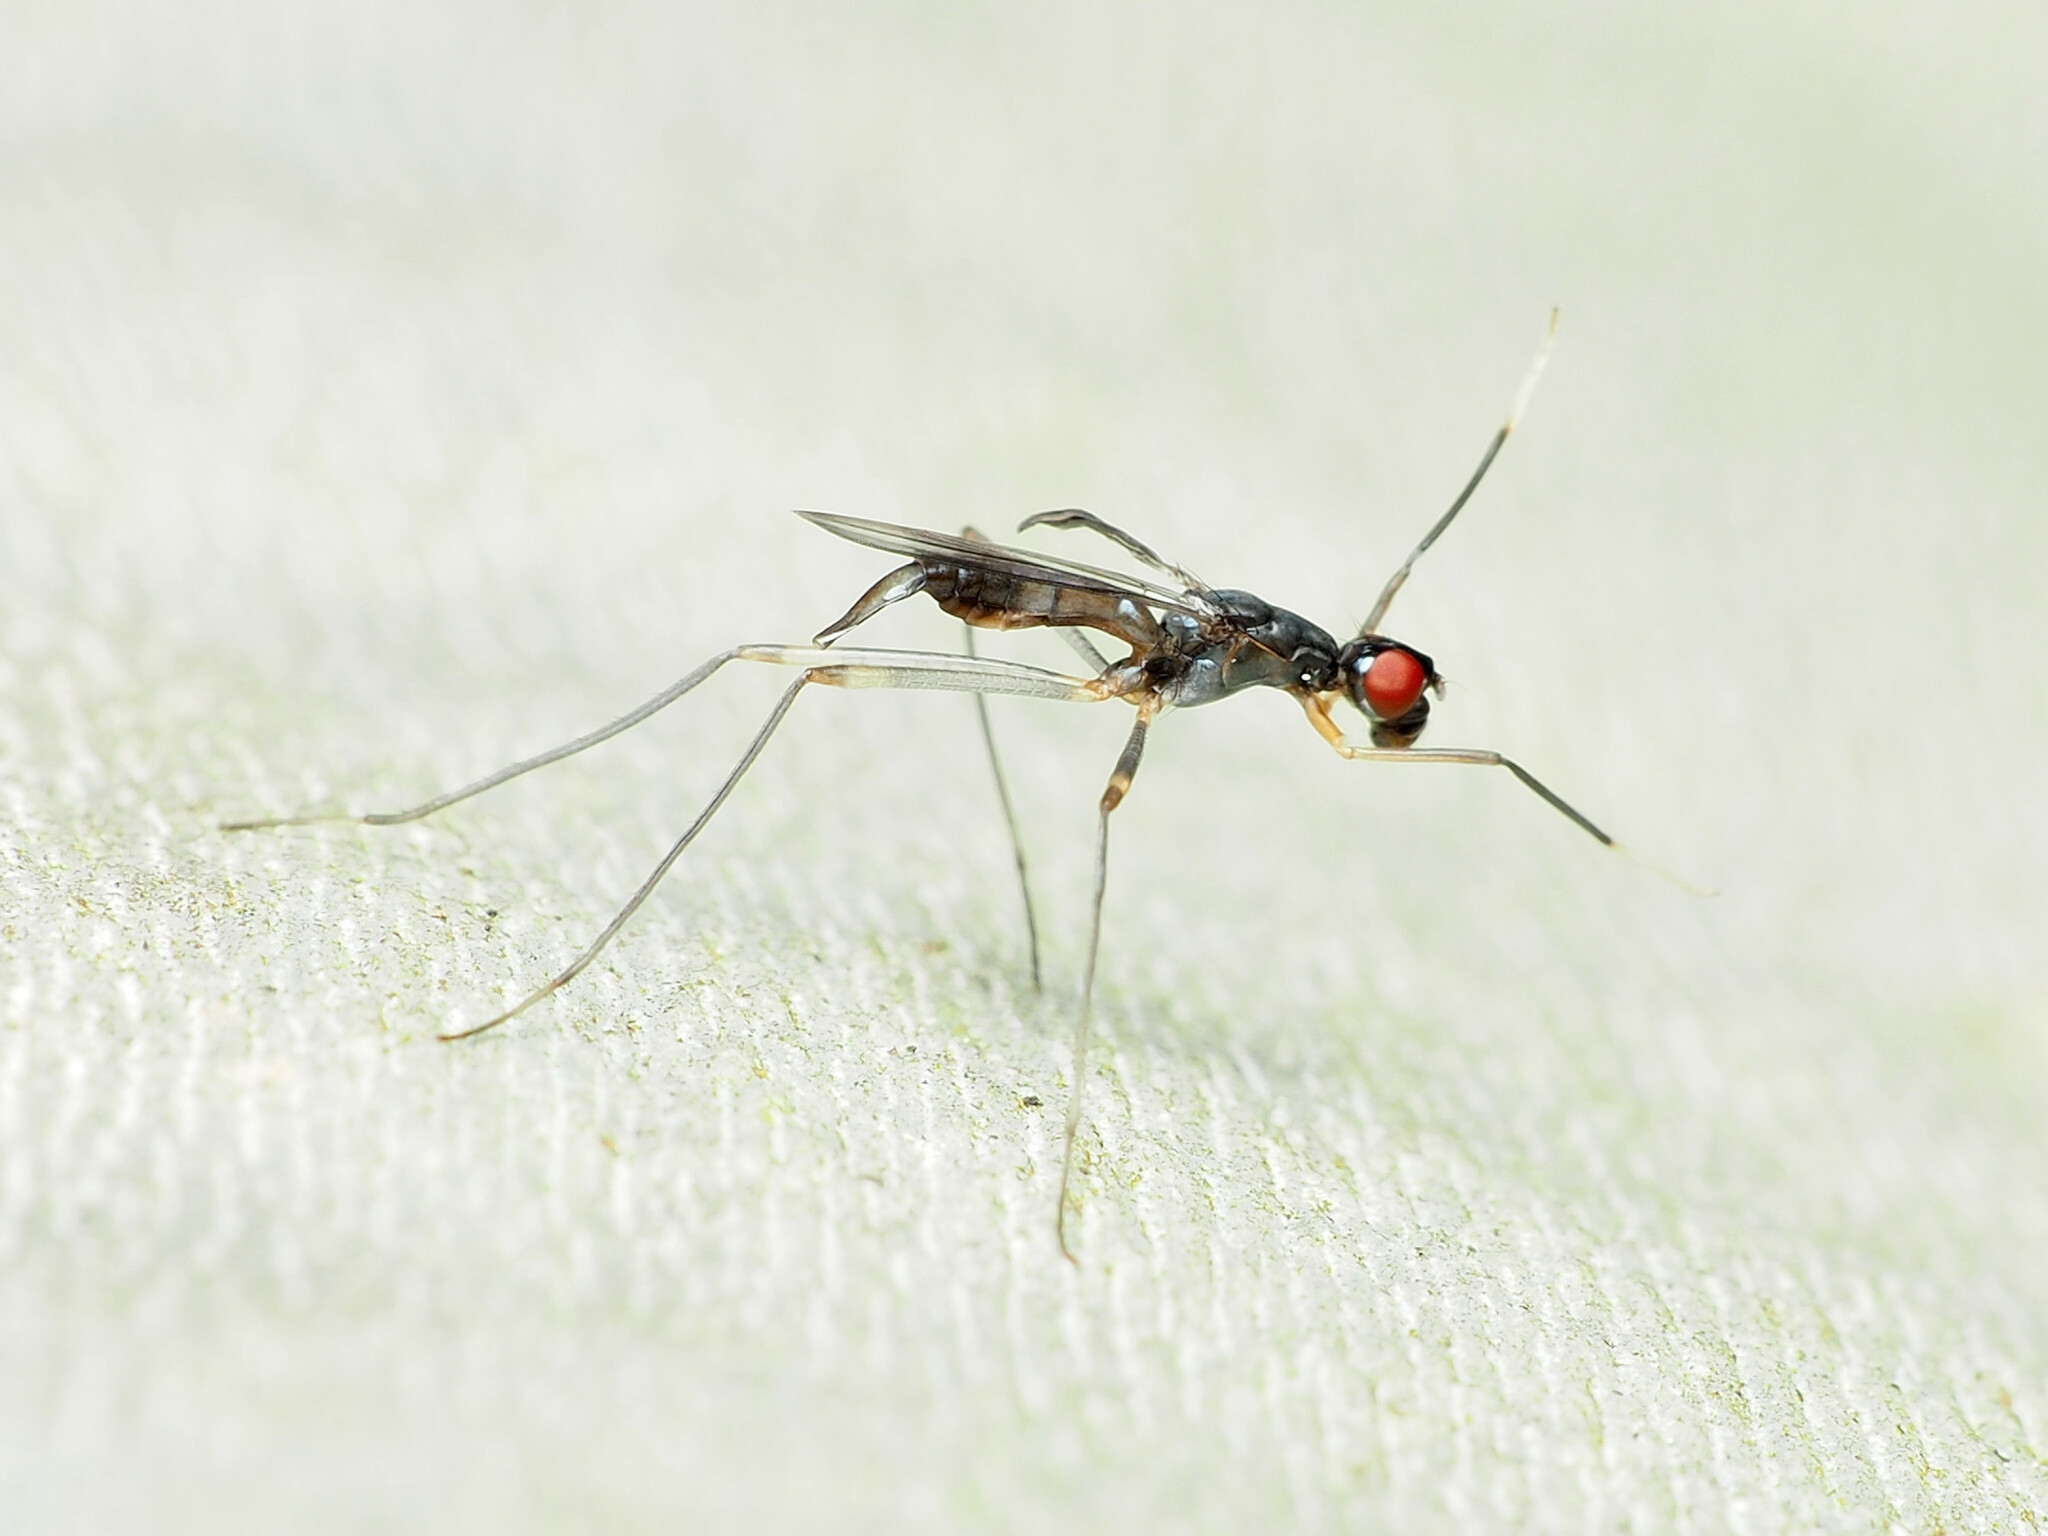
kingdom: Animalia
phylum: Arthropoda
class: Insecta
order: Diptera
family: Micropezidae
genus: Rainieria
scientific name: Rainieria antennaepes
